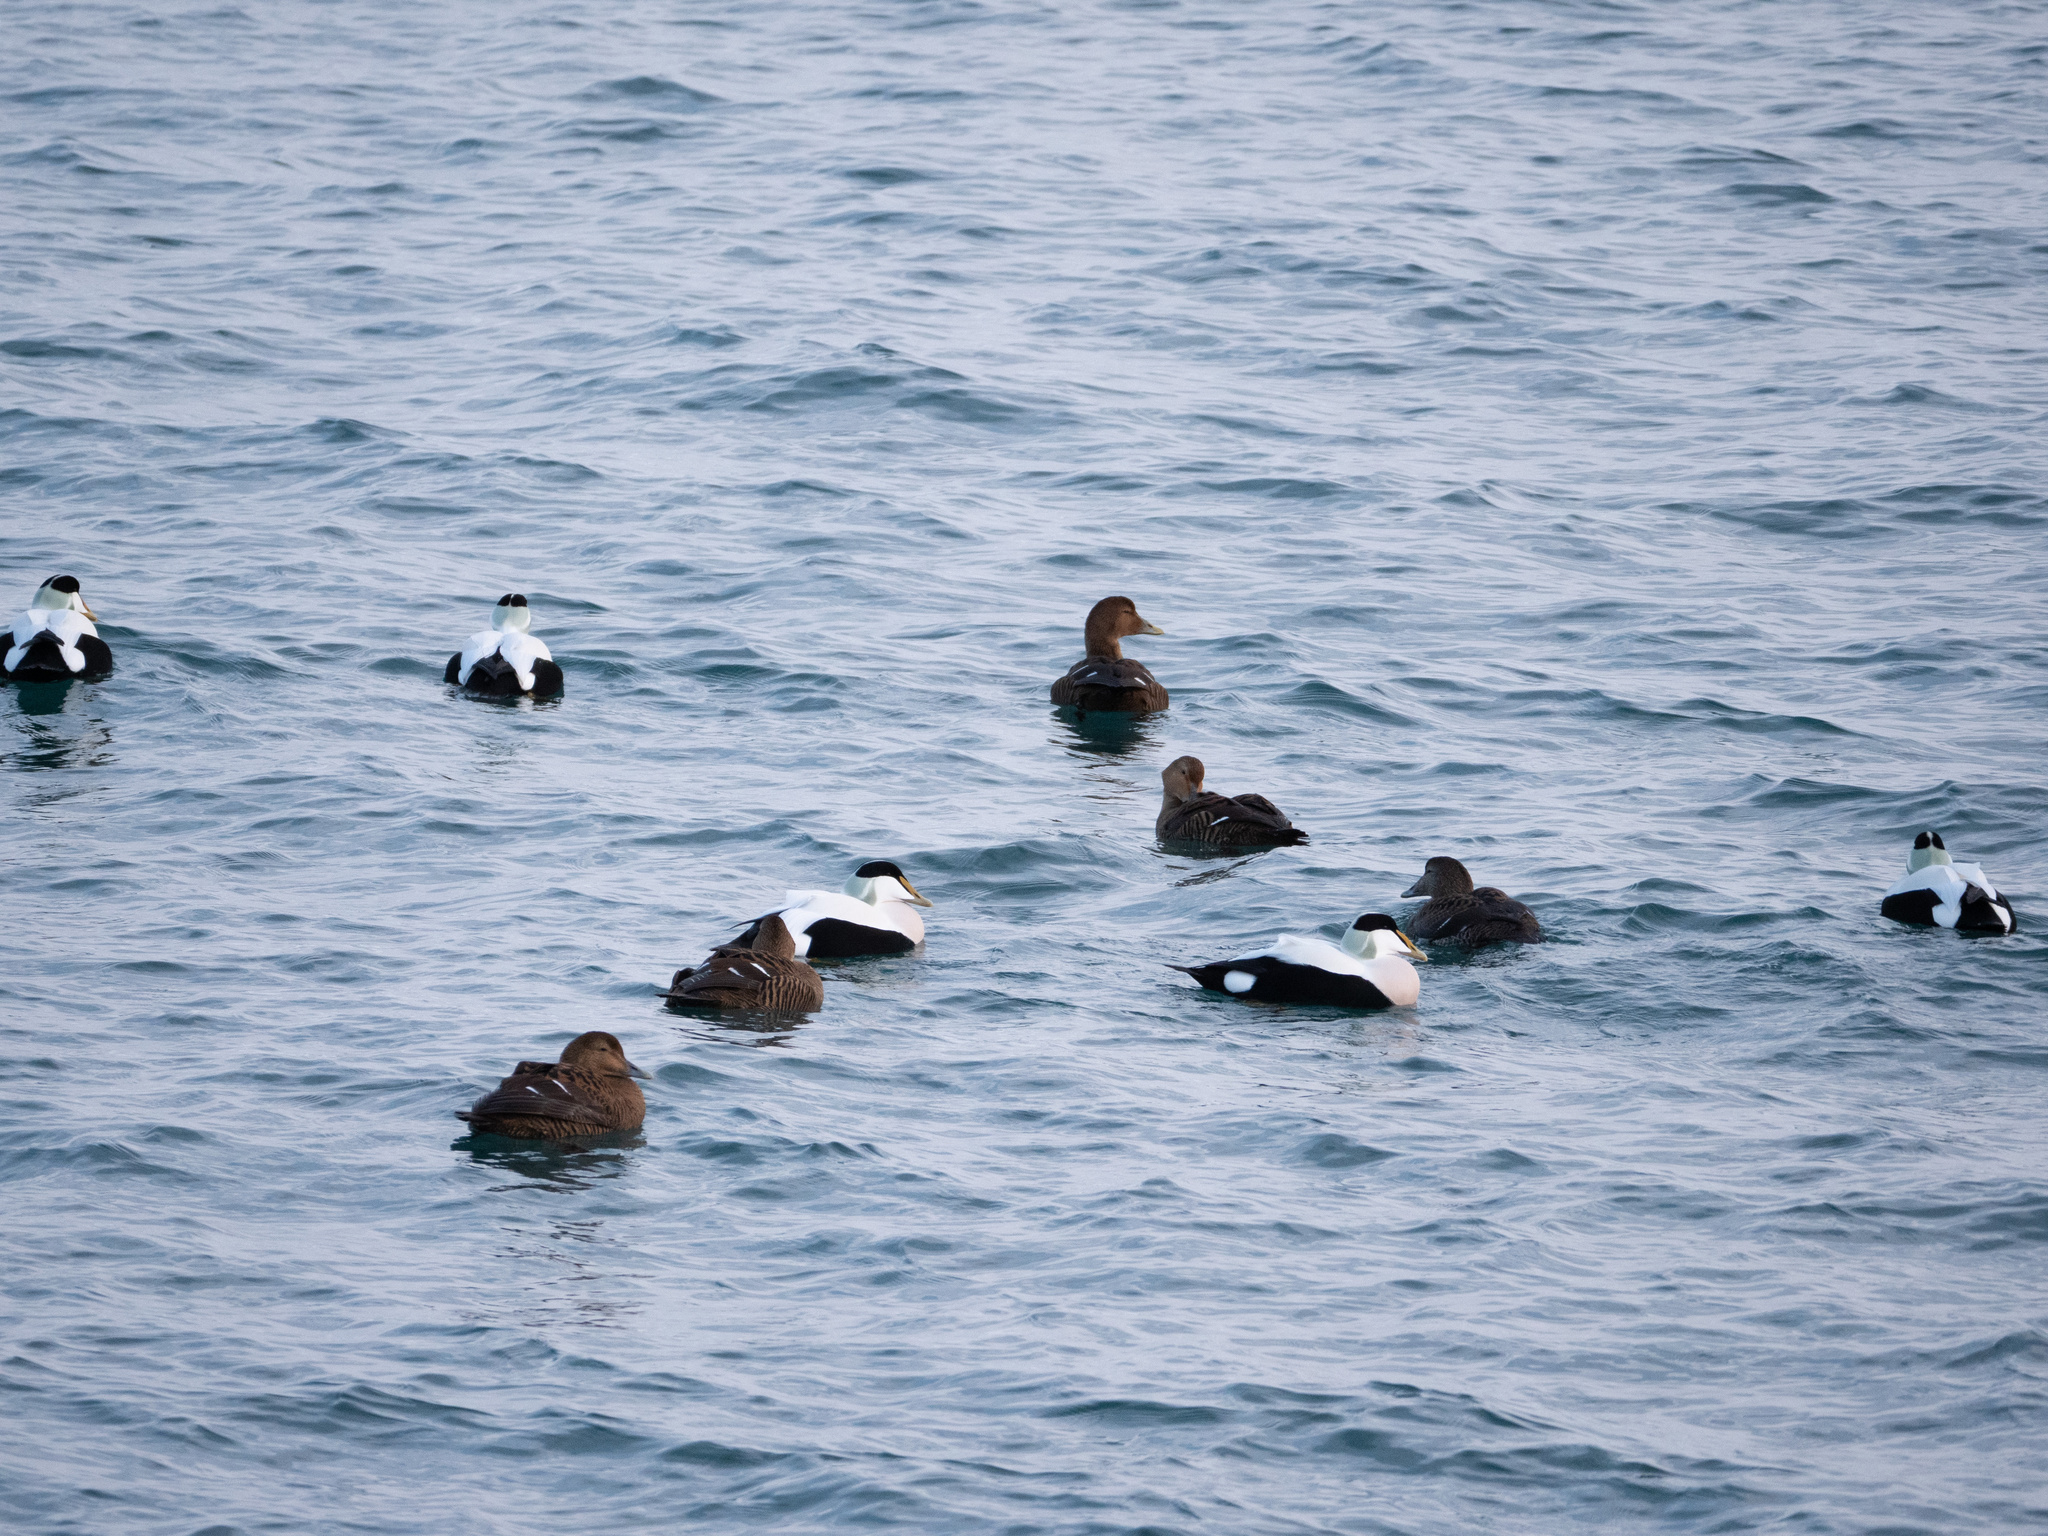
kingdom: Animalia
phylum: Chordata
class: Aves
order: Anseriformes
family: Anatidae
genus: Somateria
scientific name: Somateria mollissima
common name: Common eider
